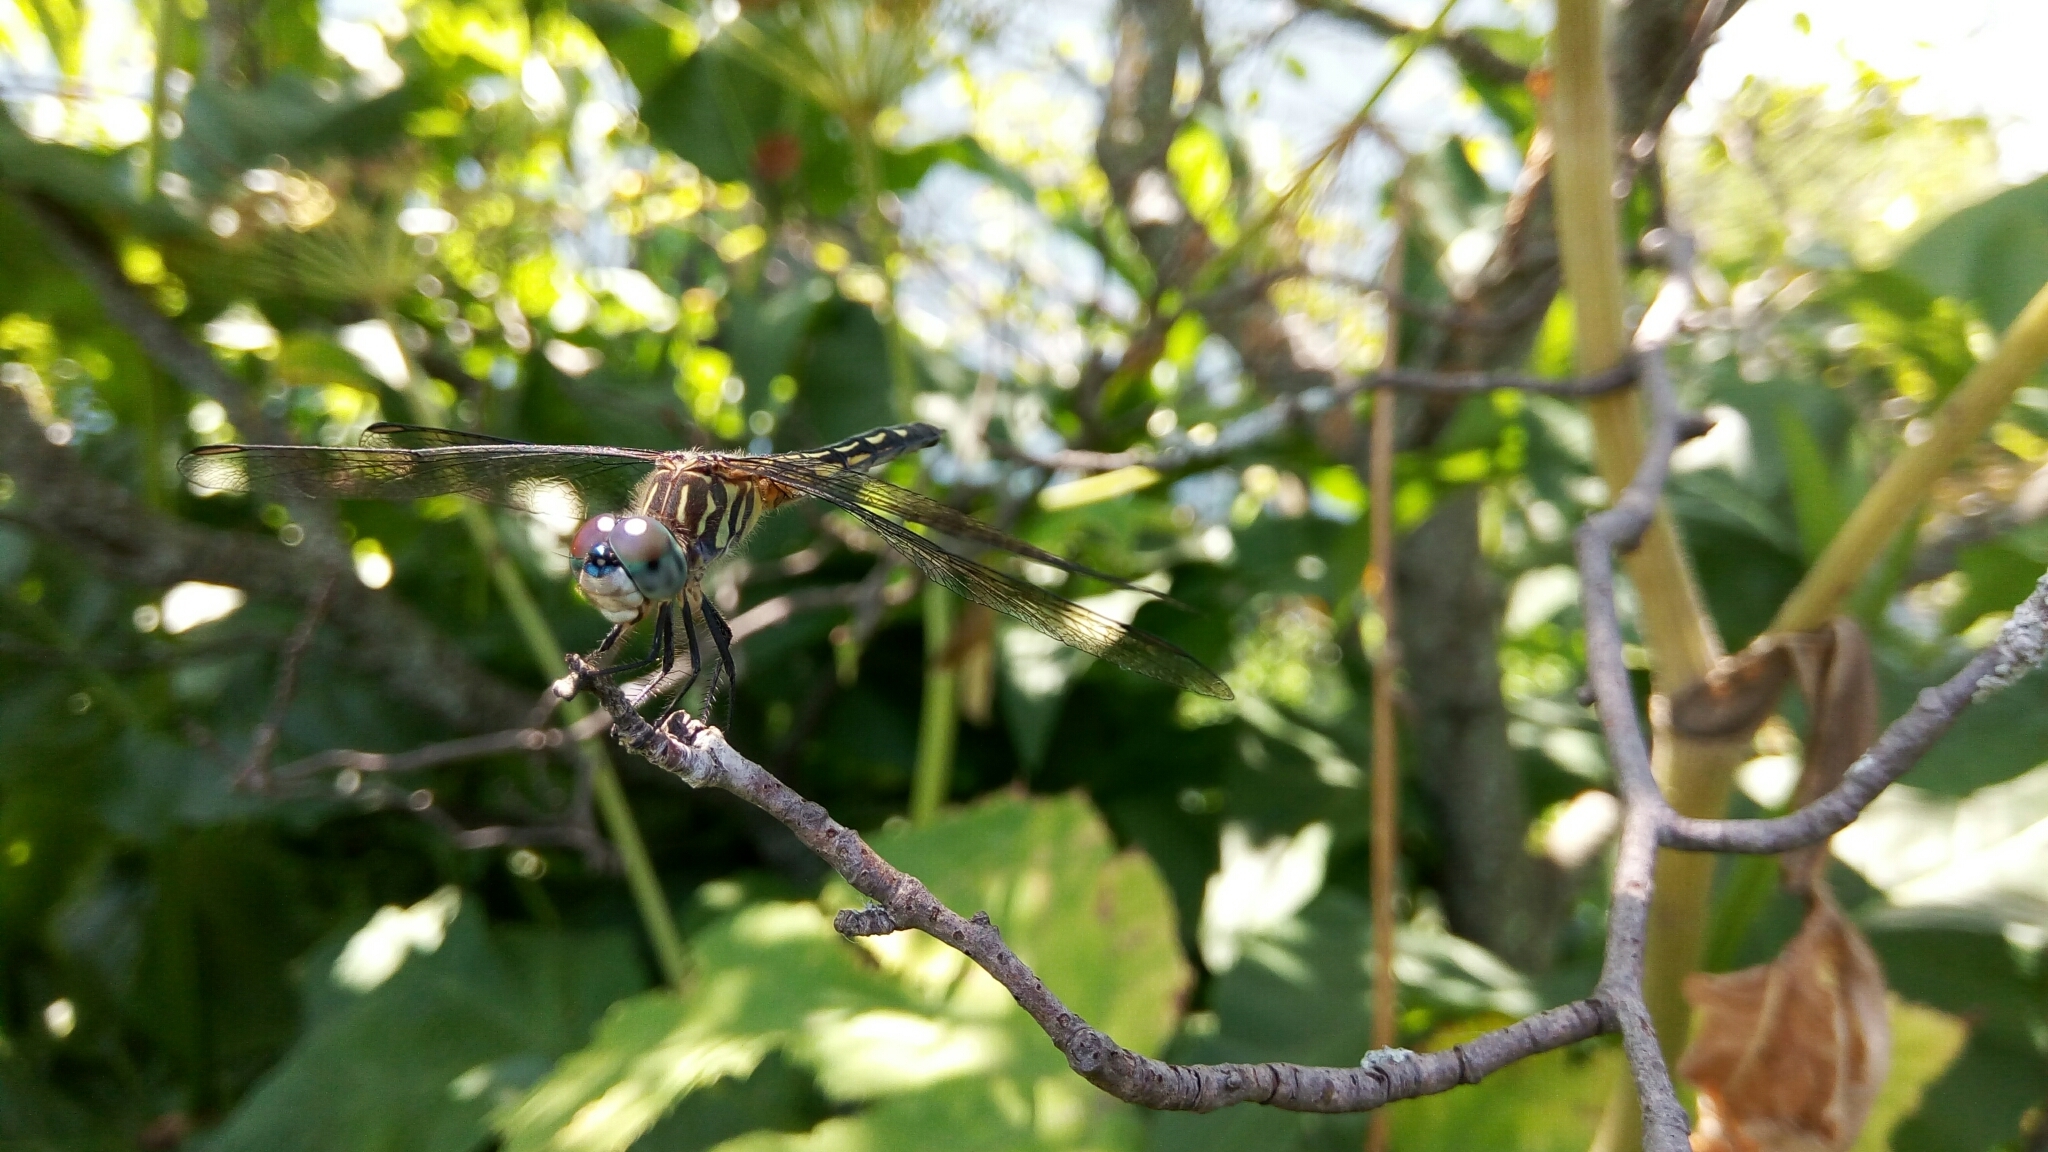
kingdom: Animalia
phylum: Arthropoda
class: Insecta
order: Odonata
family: Libellulidae
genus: Pachydiplax
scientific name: Pachydiplax longipennis
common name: Blue dasher
